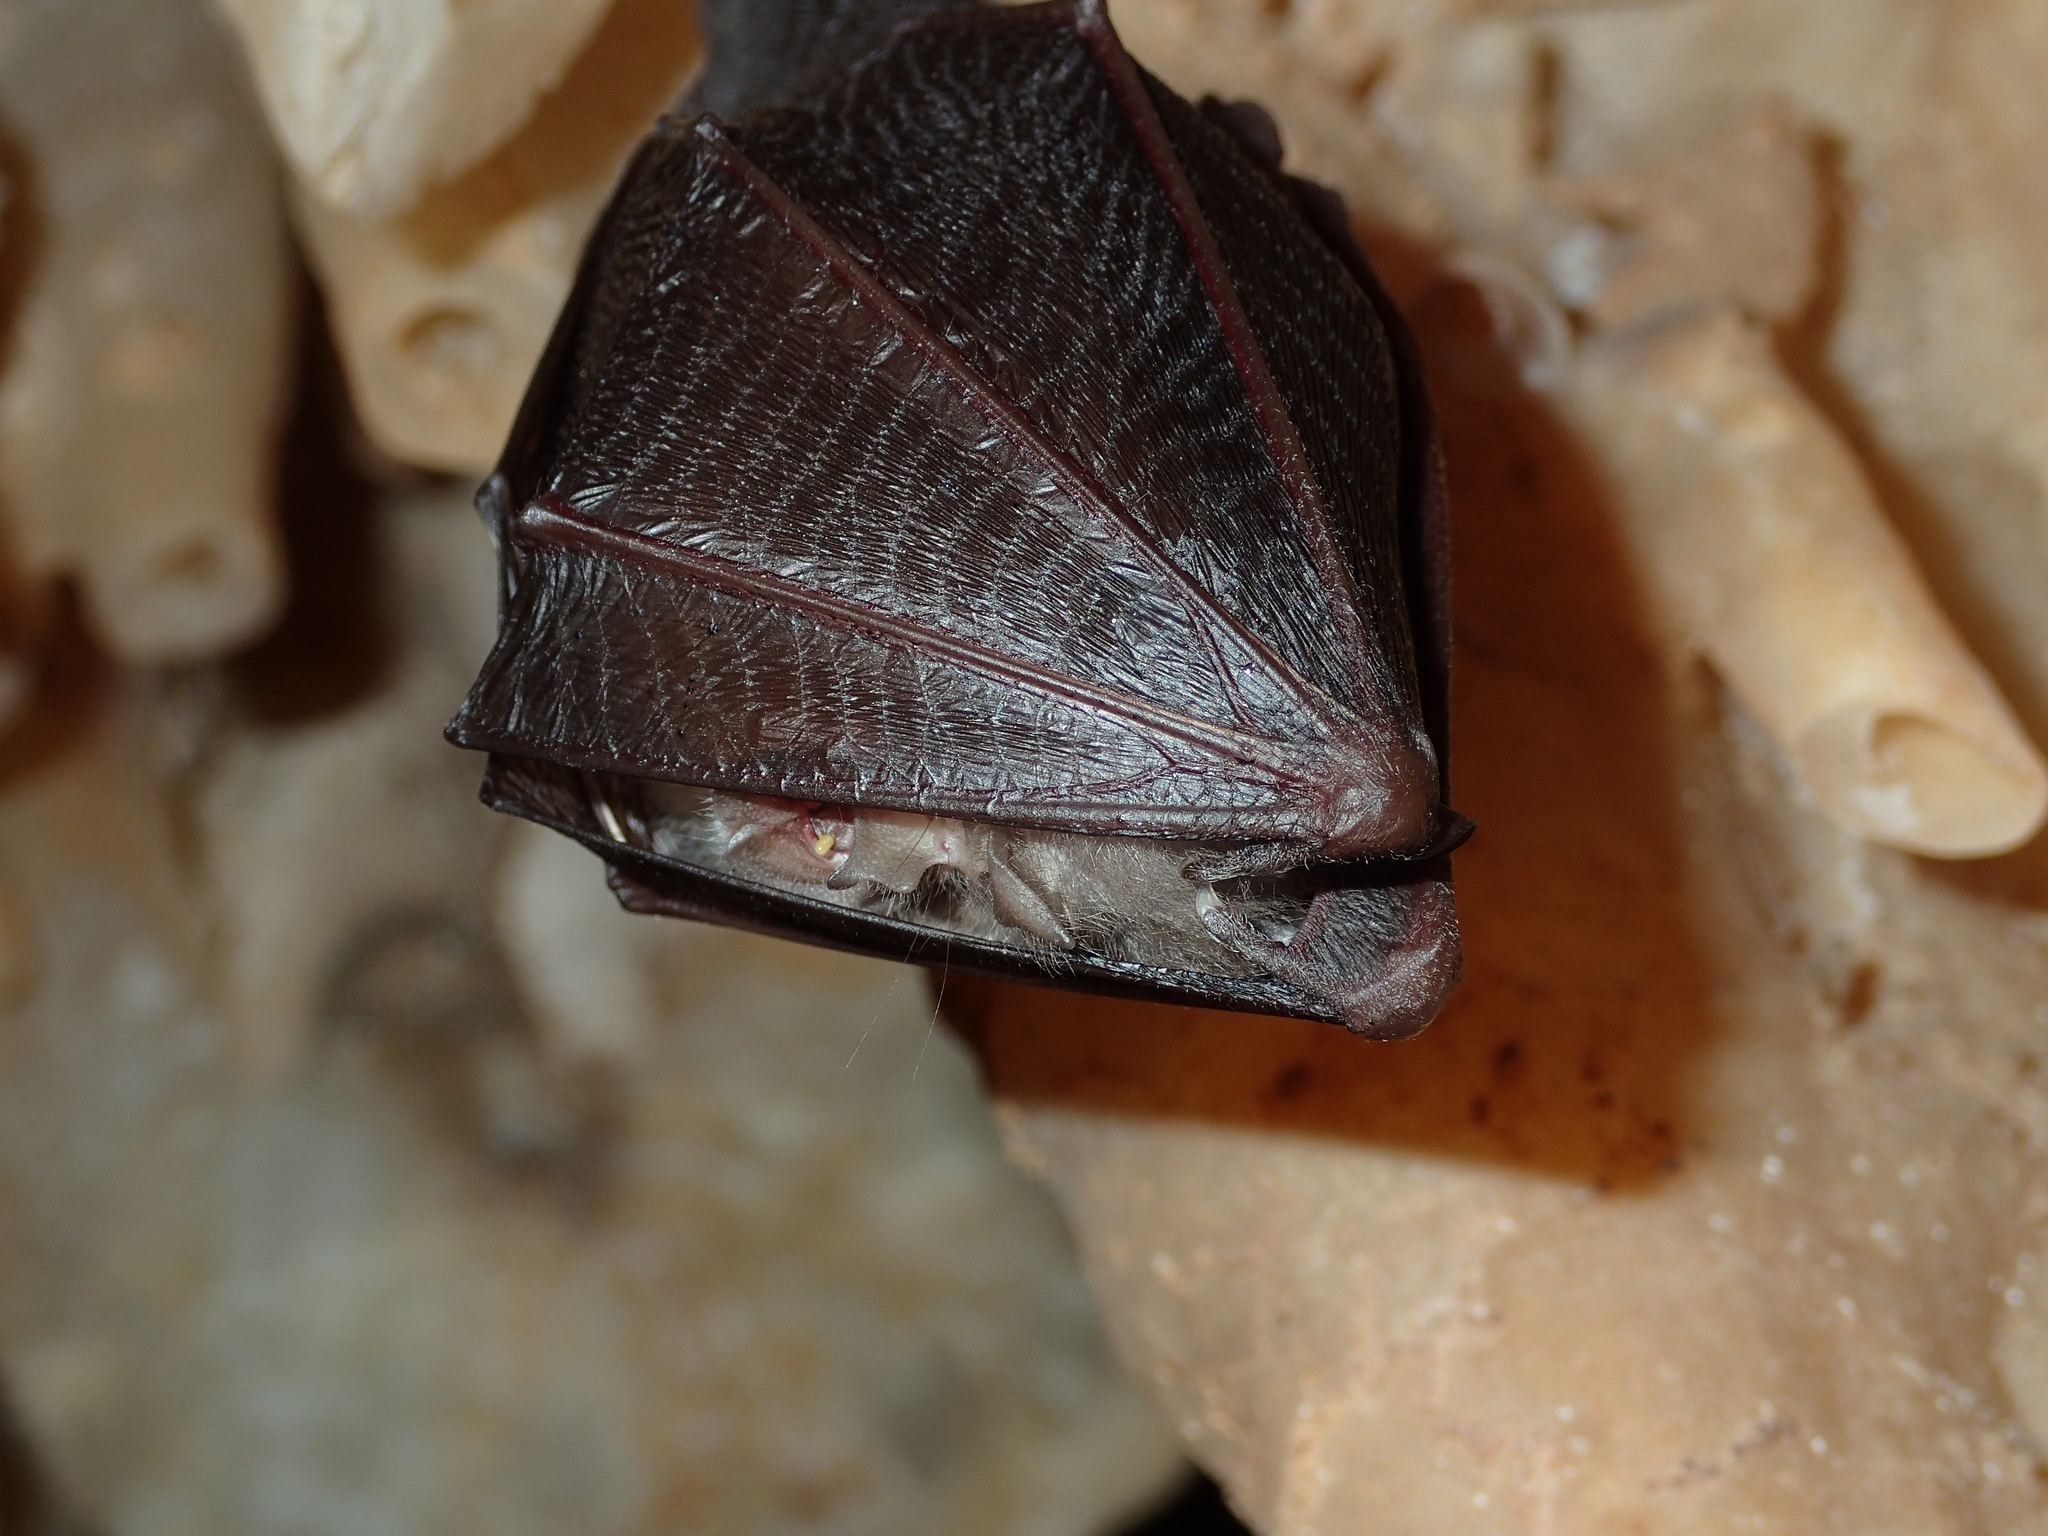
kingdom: Animalia
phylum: Chordata
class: Mammalia
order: Chiroptera
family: Rhinolophidae
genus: Rhinolophus
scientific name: Rhinolophus hipposideros
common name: Lesser horseshoe bat
